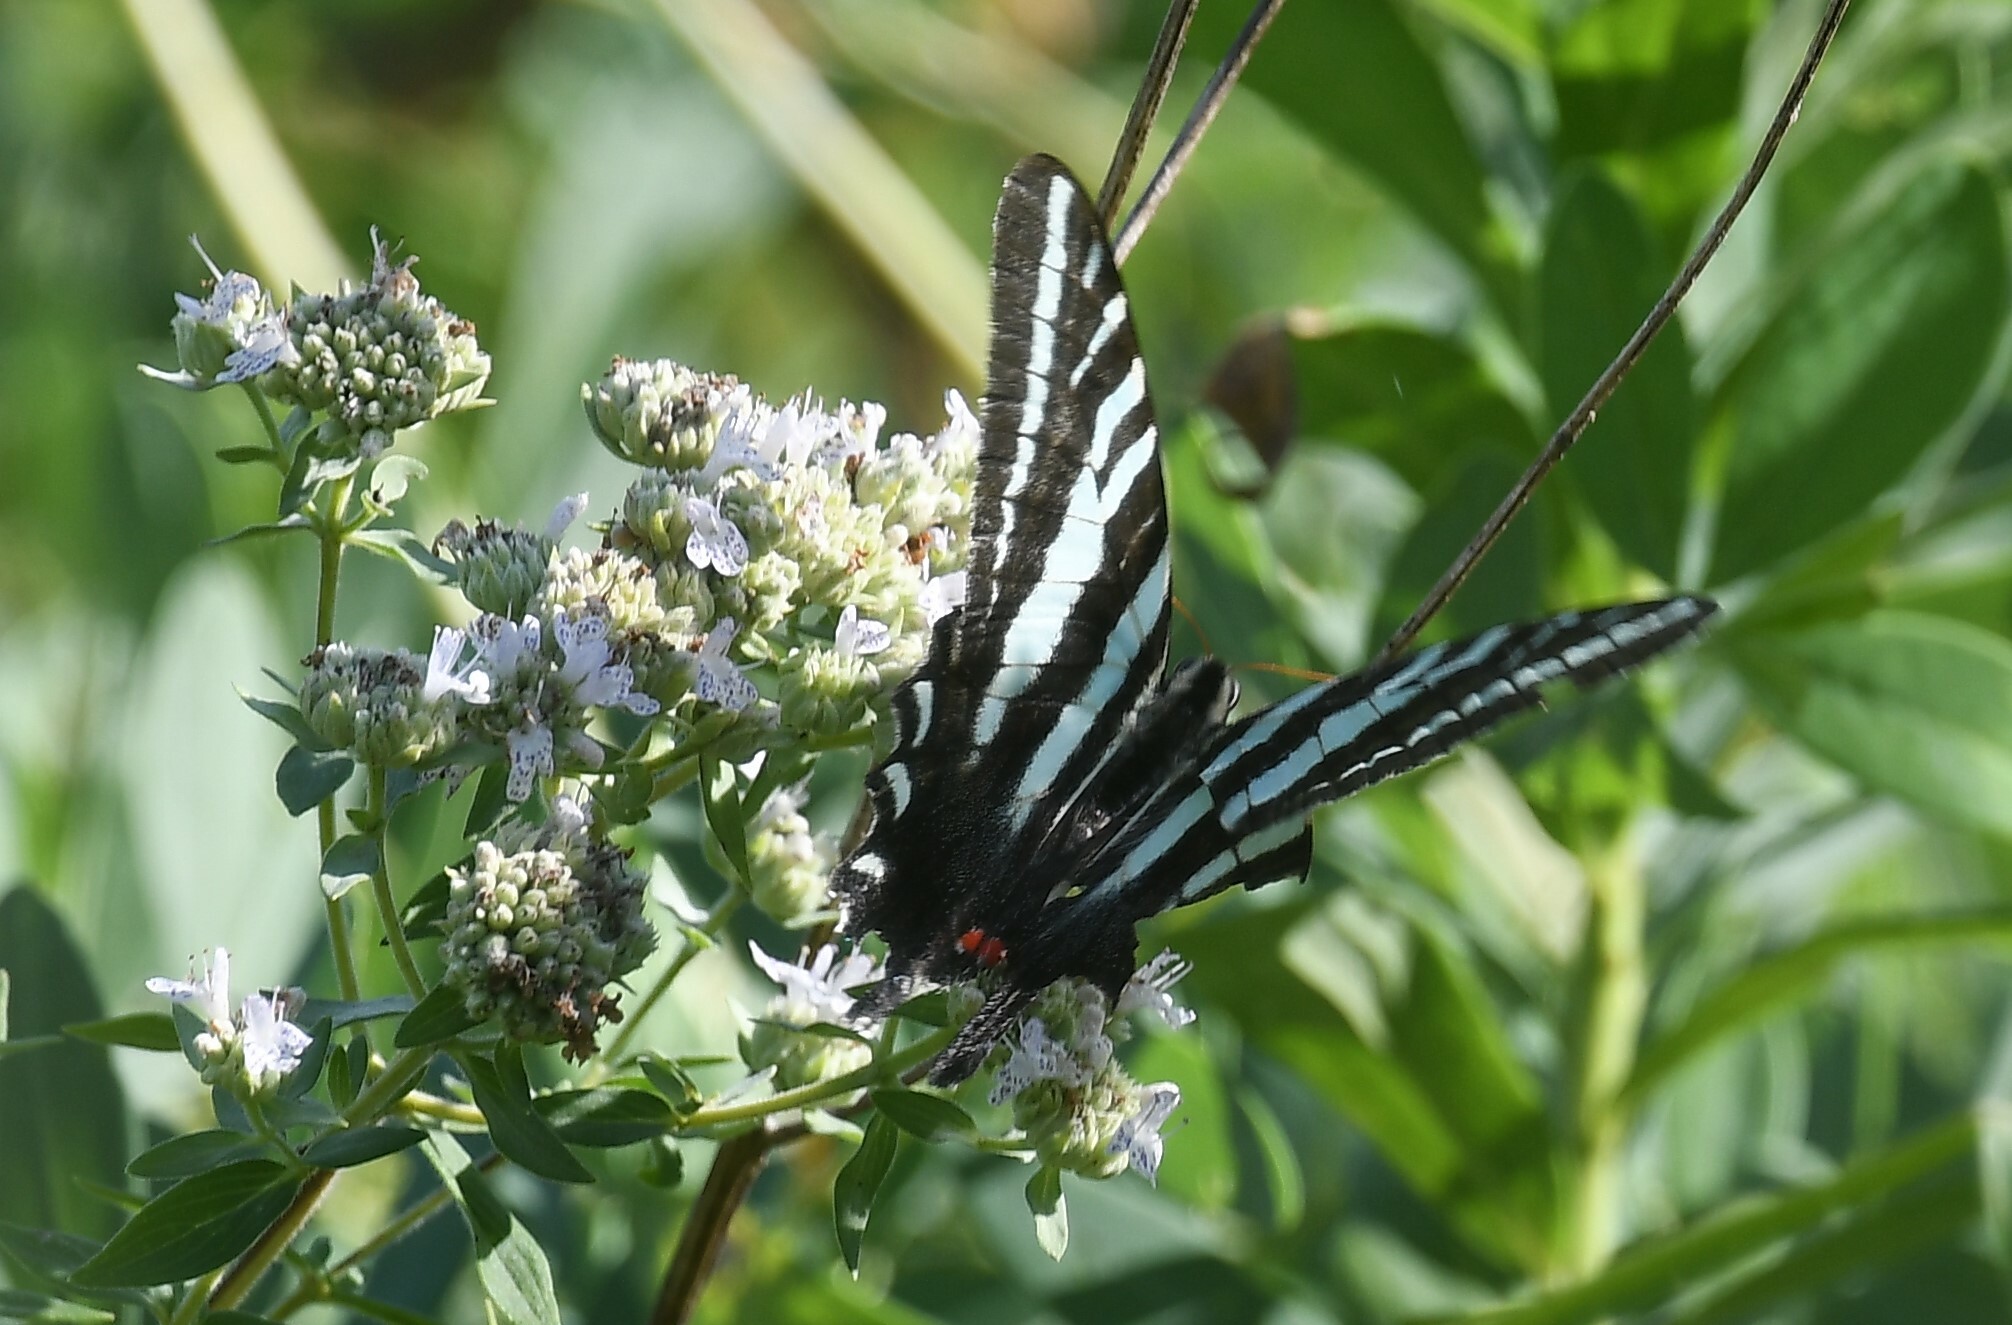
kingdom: Animalia
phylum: Arthropoda
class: Insecta
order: Lepidoptera
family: Papilionidae
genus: Protographium
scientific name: Protographium marcellus
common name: Zebra swallowtail
